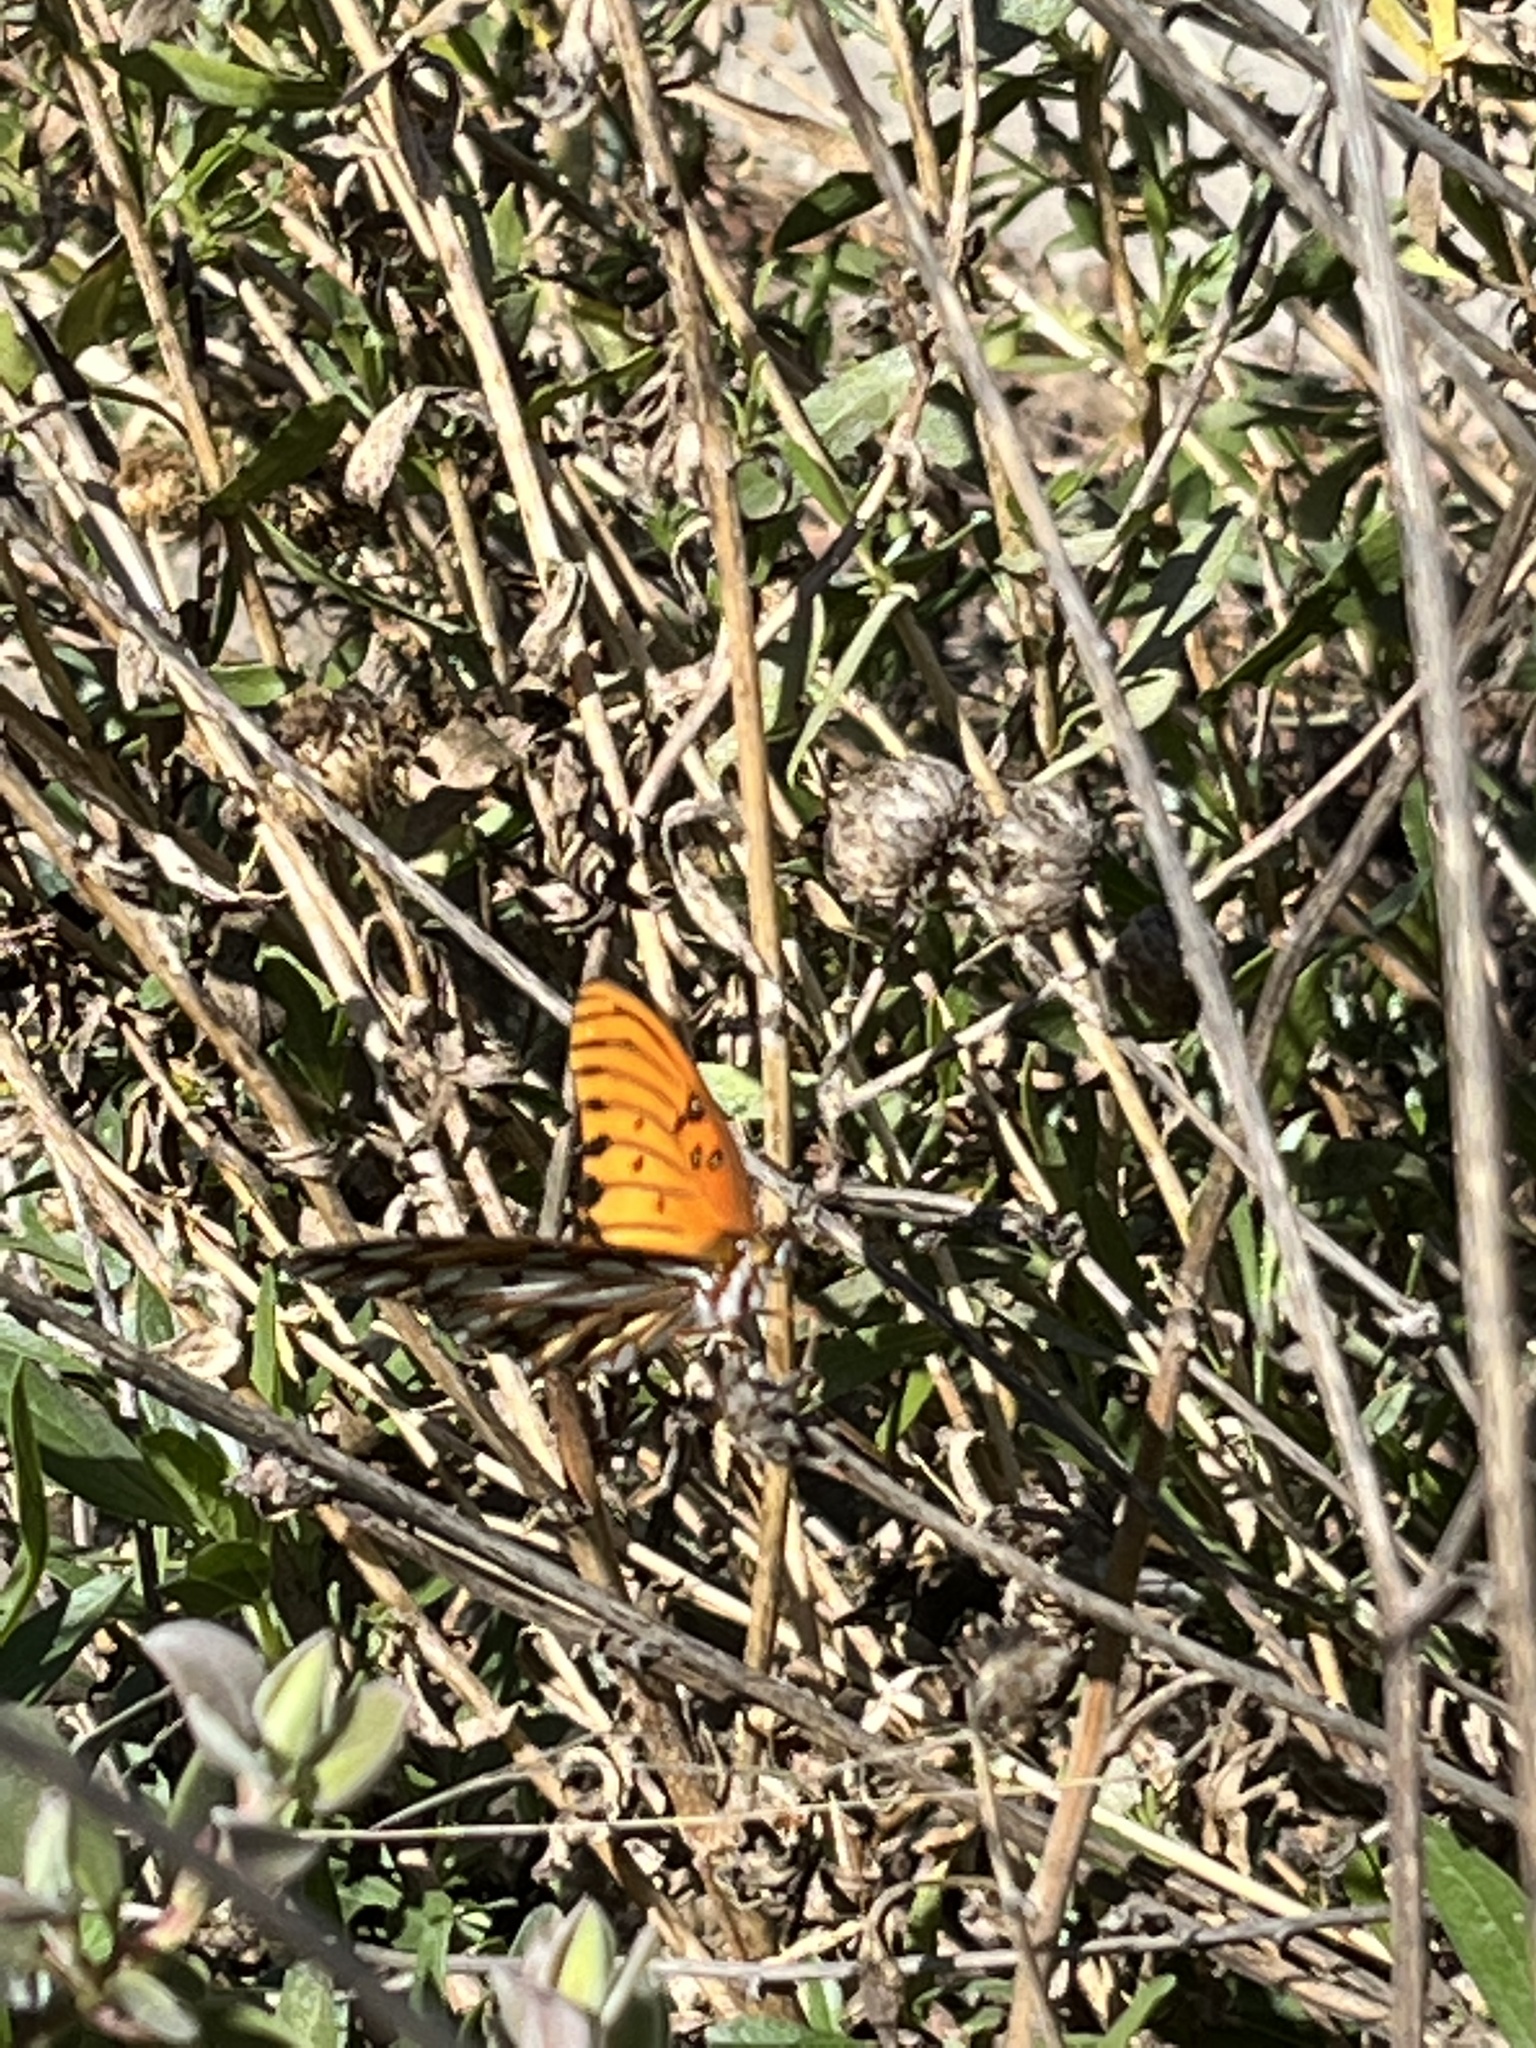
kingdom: Animalia
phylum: Arthropoda
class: Insecta
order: Lepidoptera
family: Nymphalidae
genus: Dione
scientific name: Dione vanillae
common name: Gulf fritillary
